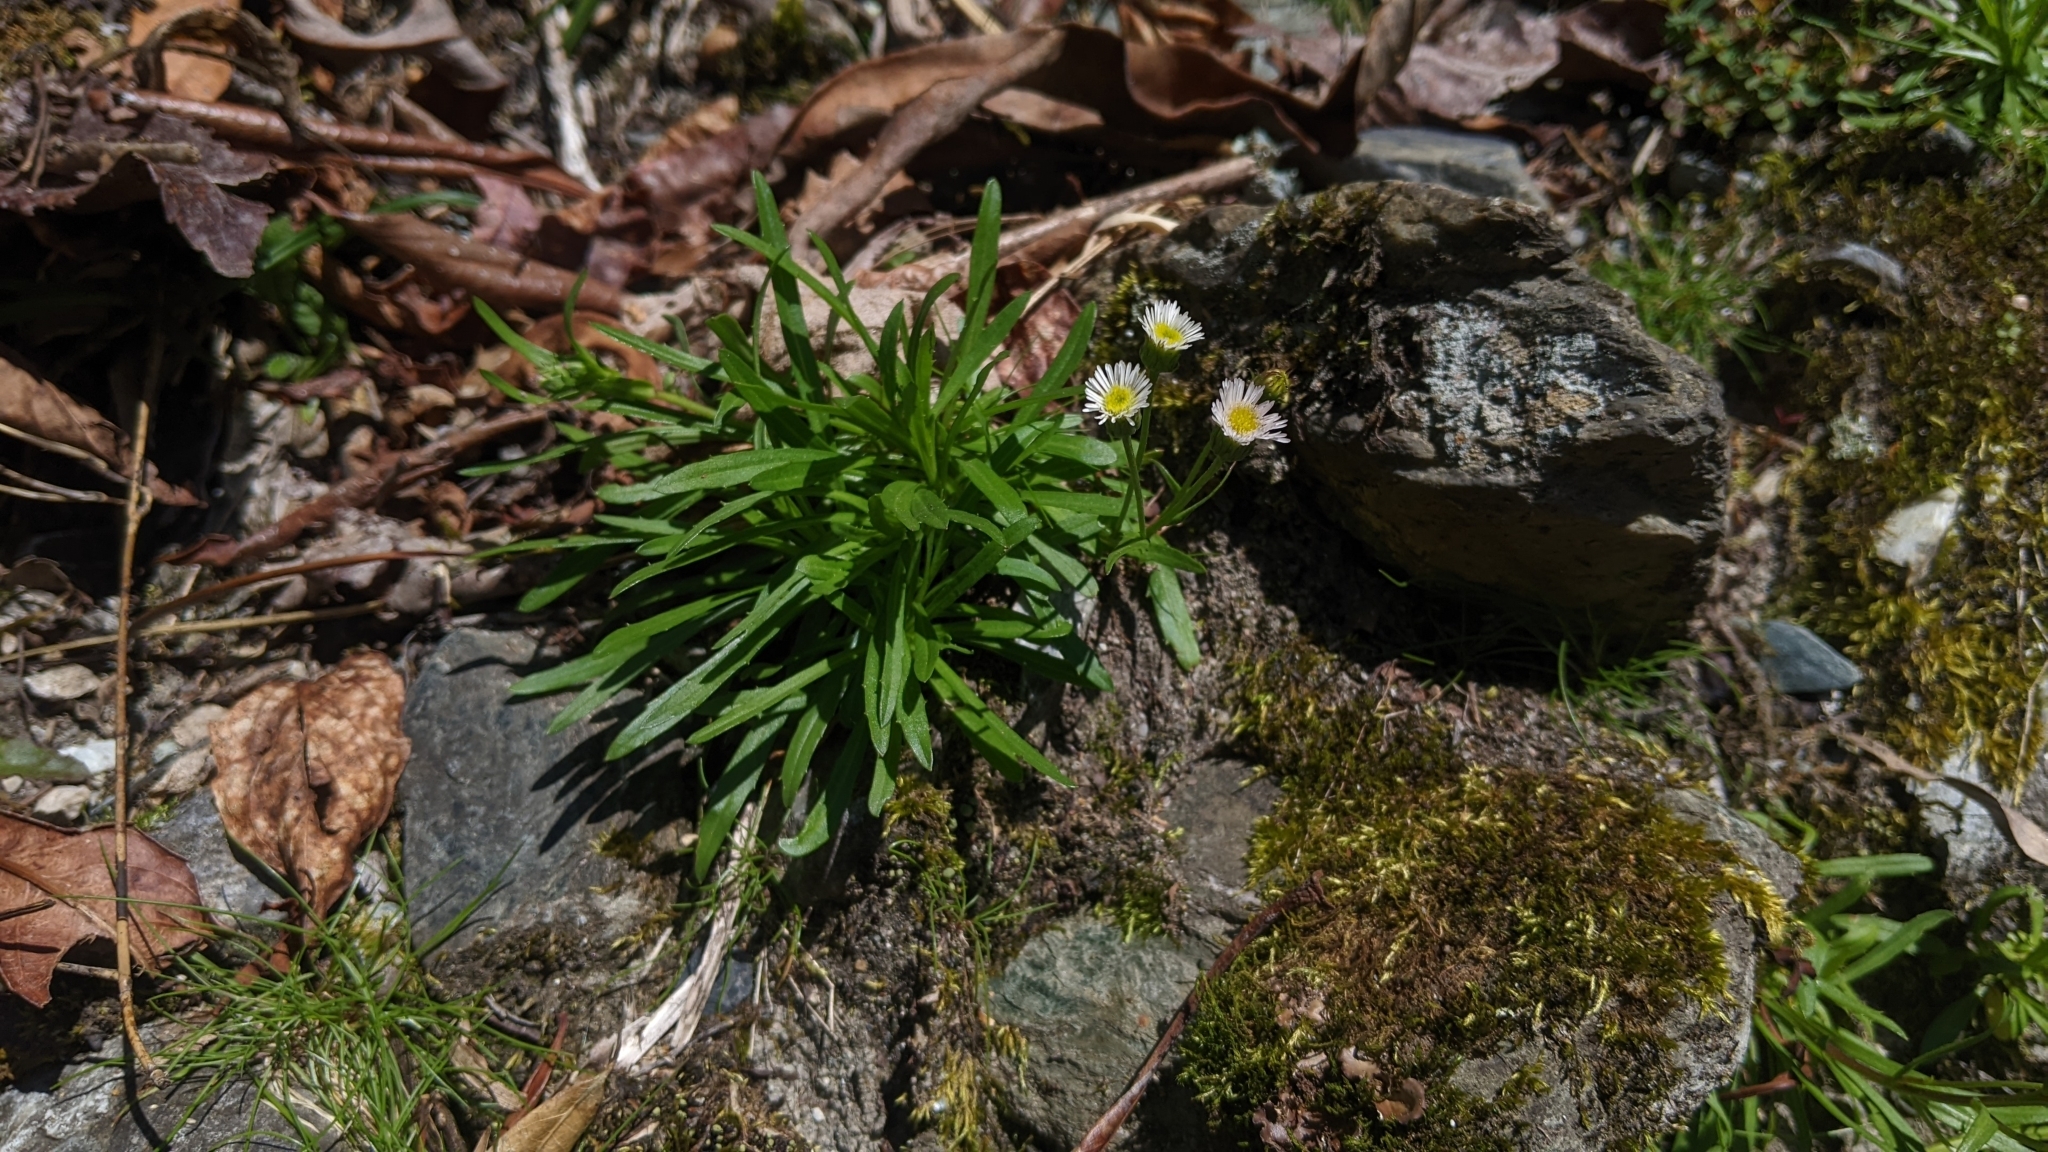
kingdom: Plantae
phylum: Tracheophyta
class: Magnoliopsida
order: Asterales
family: Asteraceae
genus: Erigeron
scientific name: Erigeron morrisonensis
